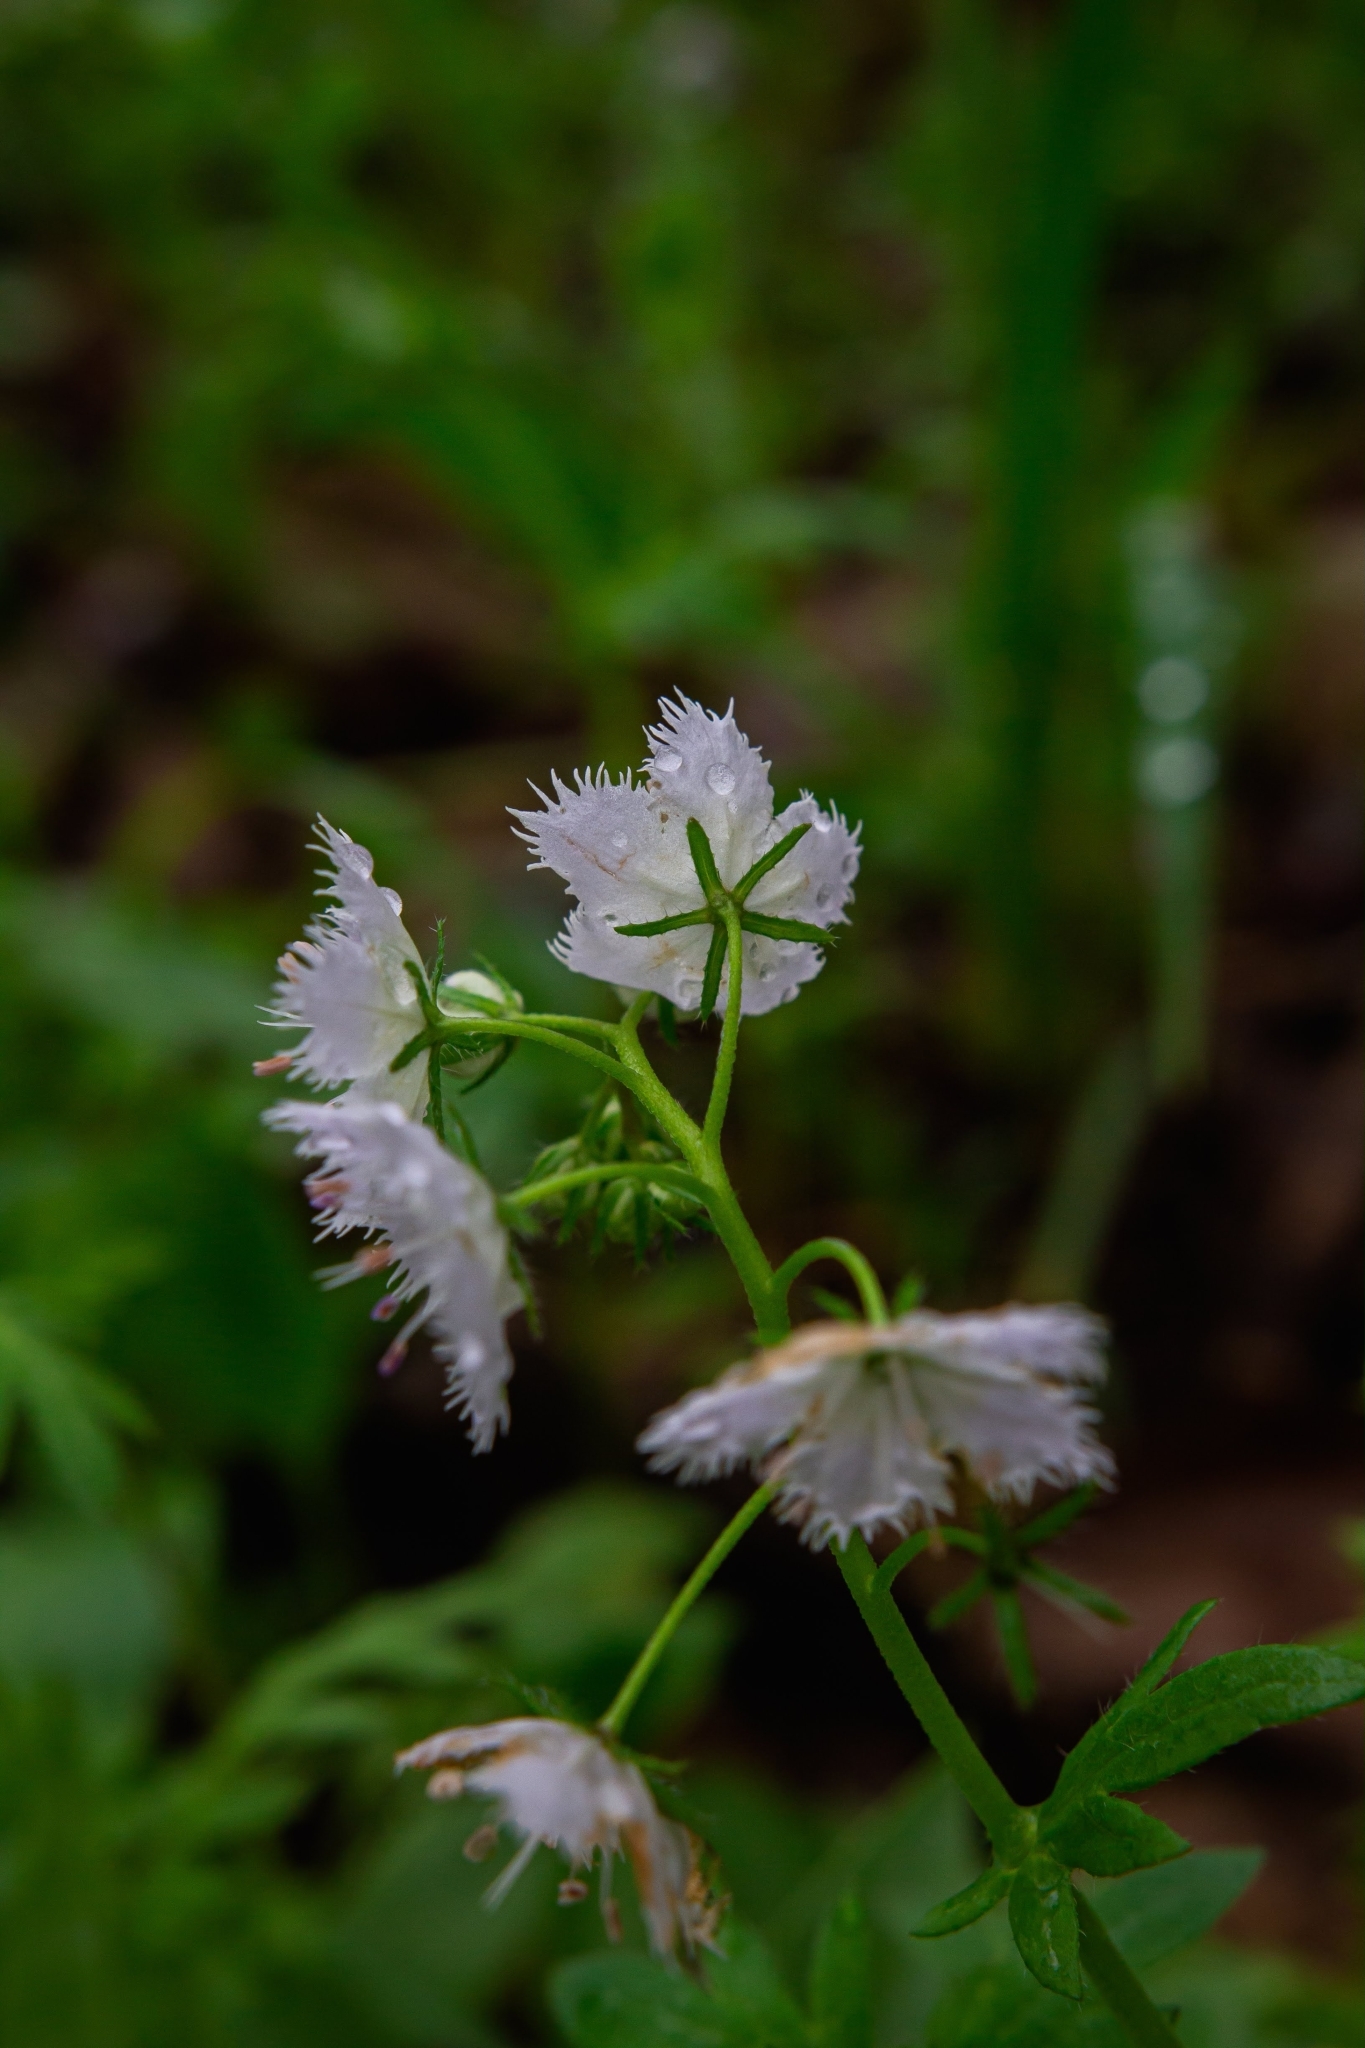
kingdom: Plantae
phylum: Tracheophyta
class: Magnoliopsida
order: Boraginales
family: Hydrophyllaceae
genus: Phacelia
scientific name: Phacelia purshii
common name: Miami-mist
